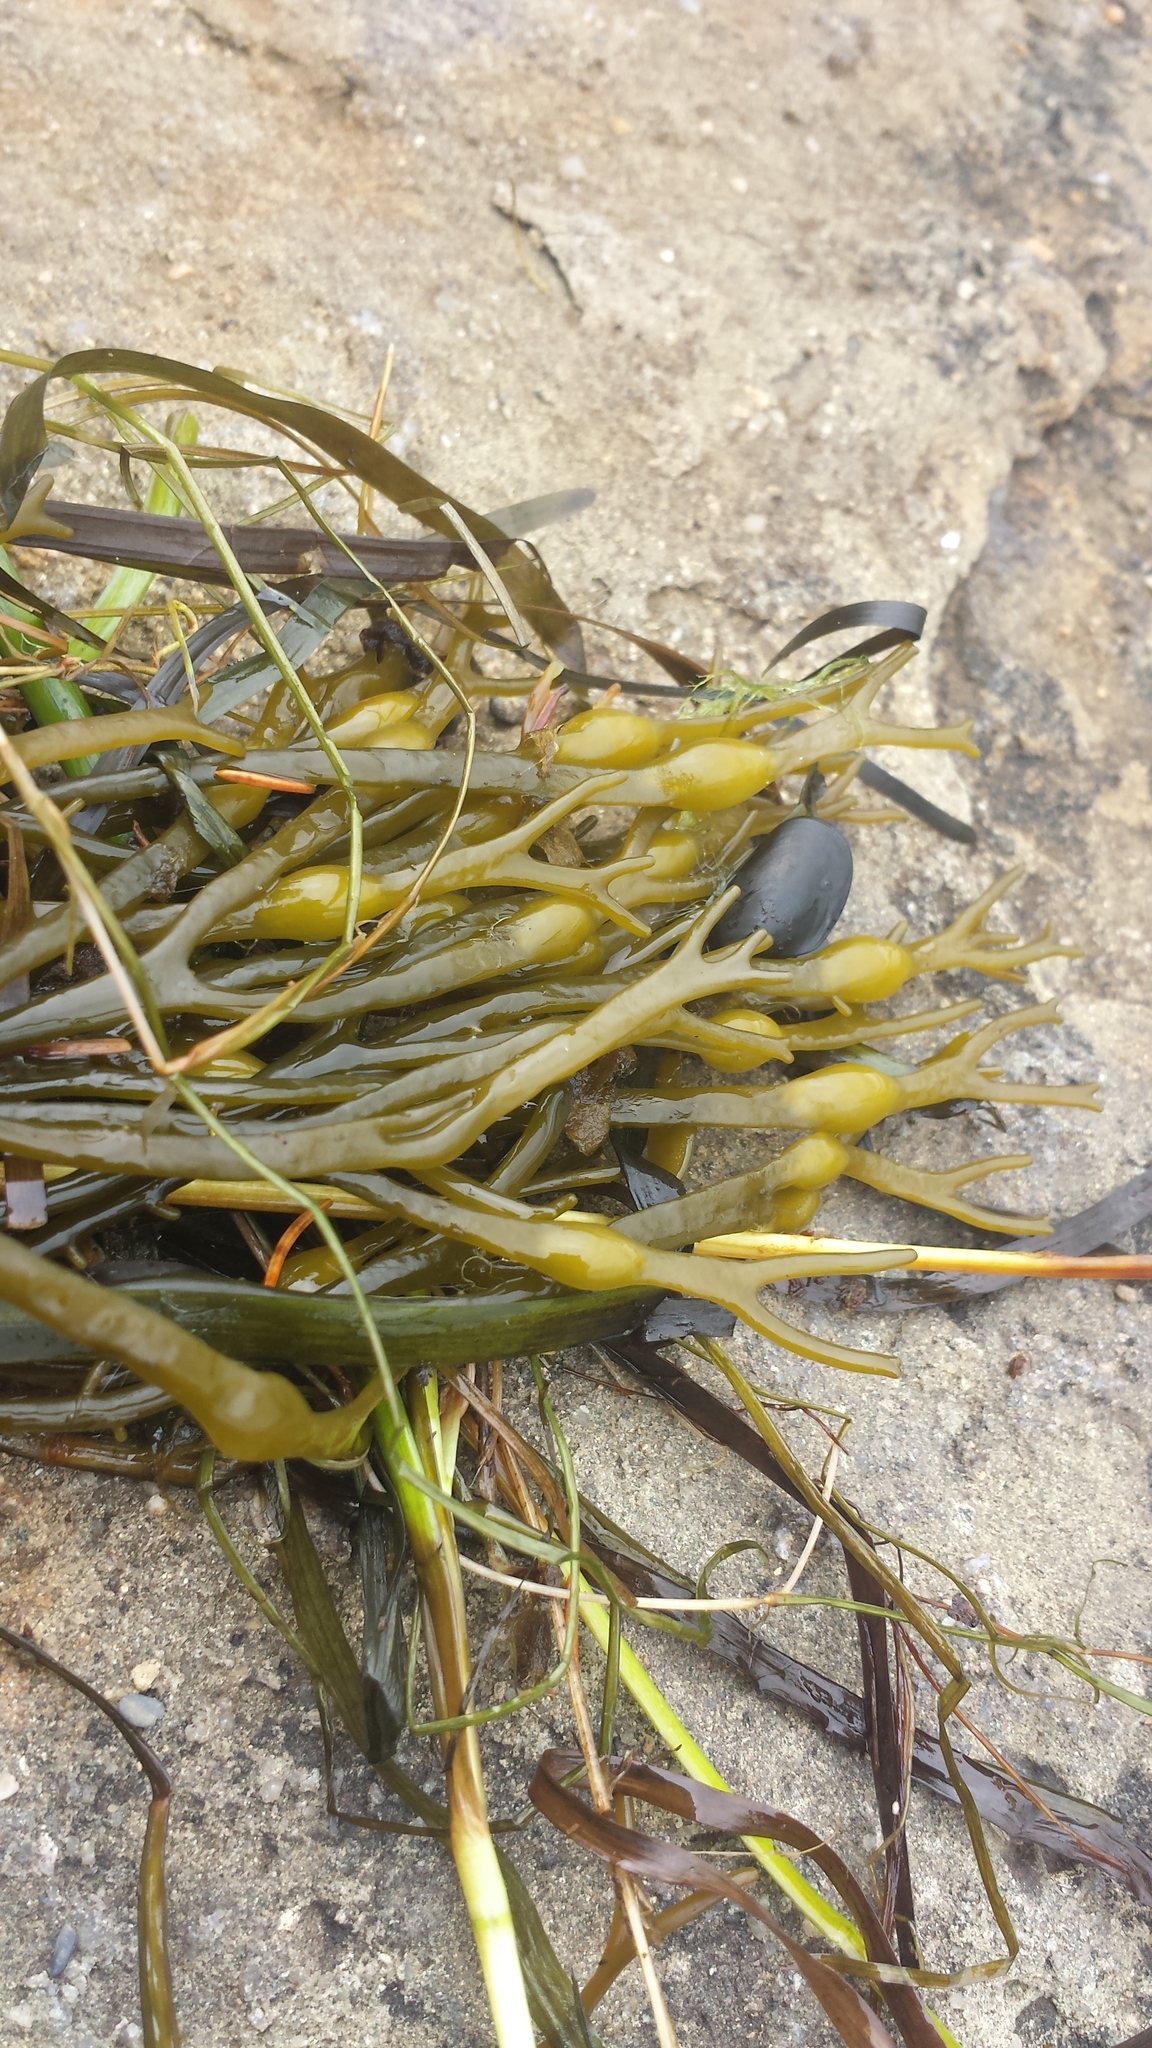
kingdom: Chromista
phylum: Ochrophyta
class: Phaeophyceae
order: Fucales
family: Fucaceae
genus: Ascophyllum
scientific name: Ascophyllum nodosum
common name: Knotted wrack
